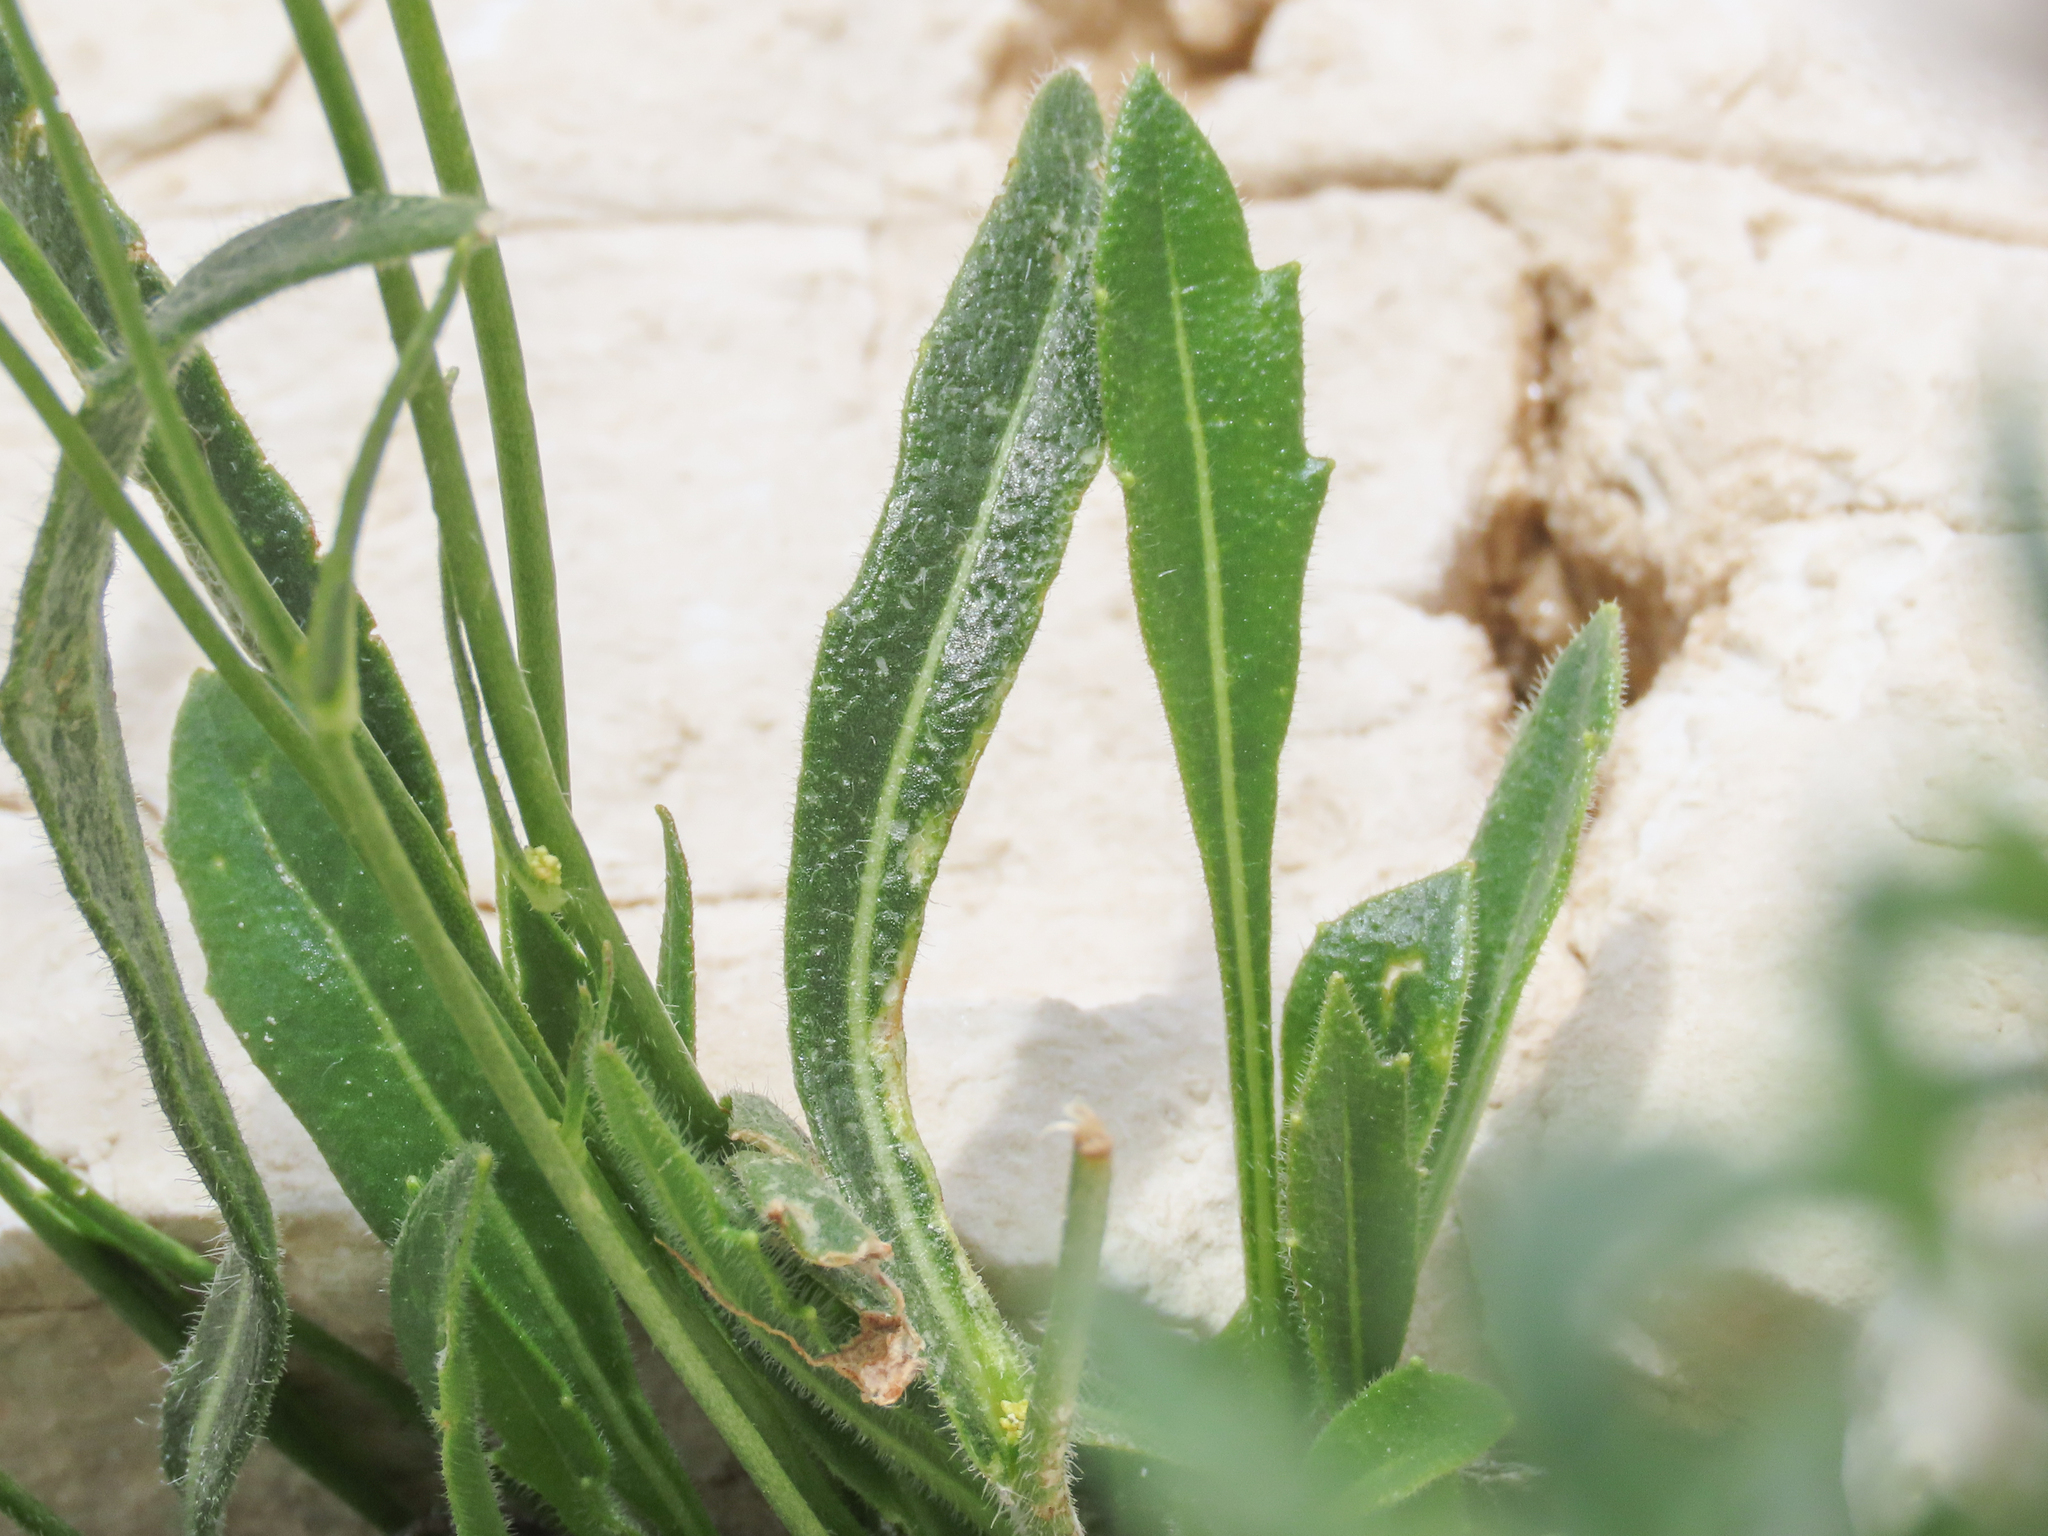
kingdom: Plantae
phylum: Tracheophyta
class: Magnoliopsida
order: Brassicales
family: Brassicaceae
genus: Biscutella
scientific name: Biscutella laevigata
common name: Buckler mustard
